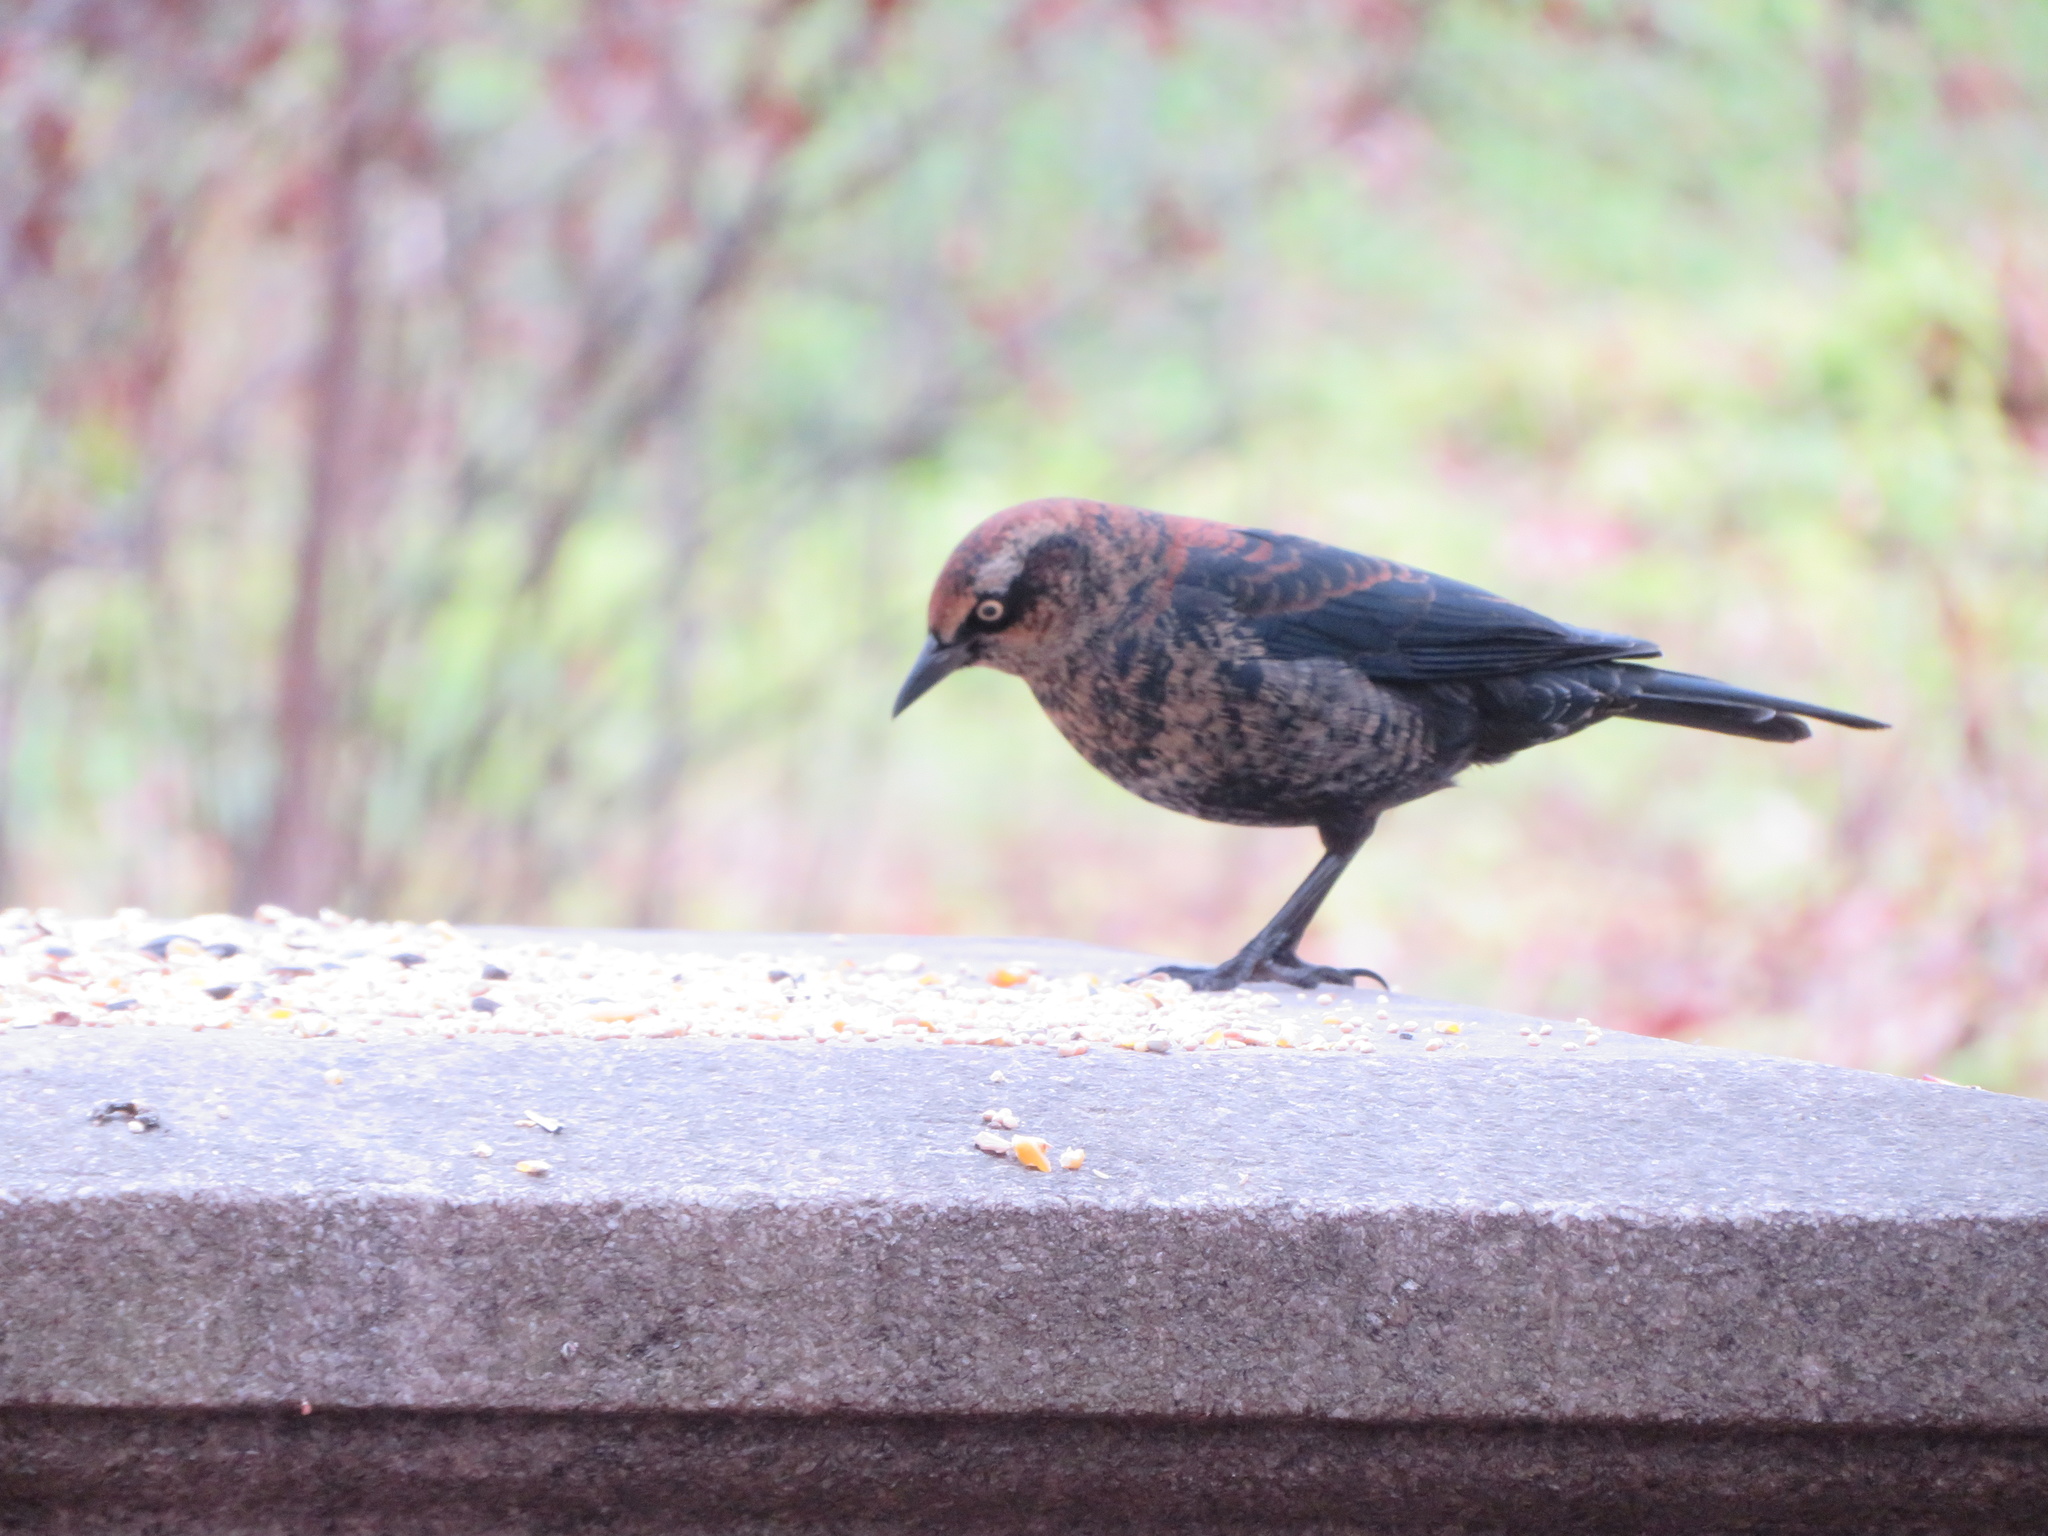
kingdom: Animalia
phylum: Chordata
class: Aves
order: Passeriformes
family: Icteridae
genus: Euphagus
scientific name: Euphagus carolinus
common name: Rusty blackbird
